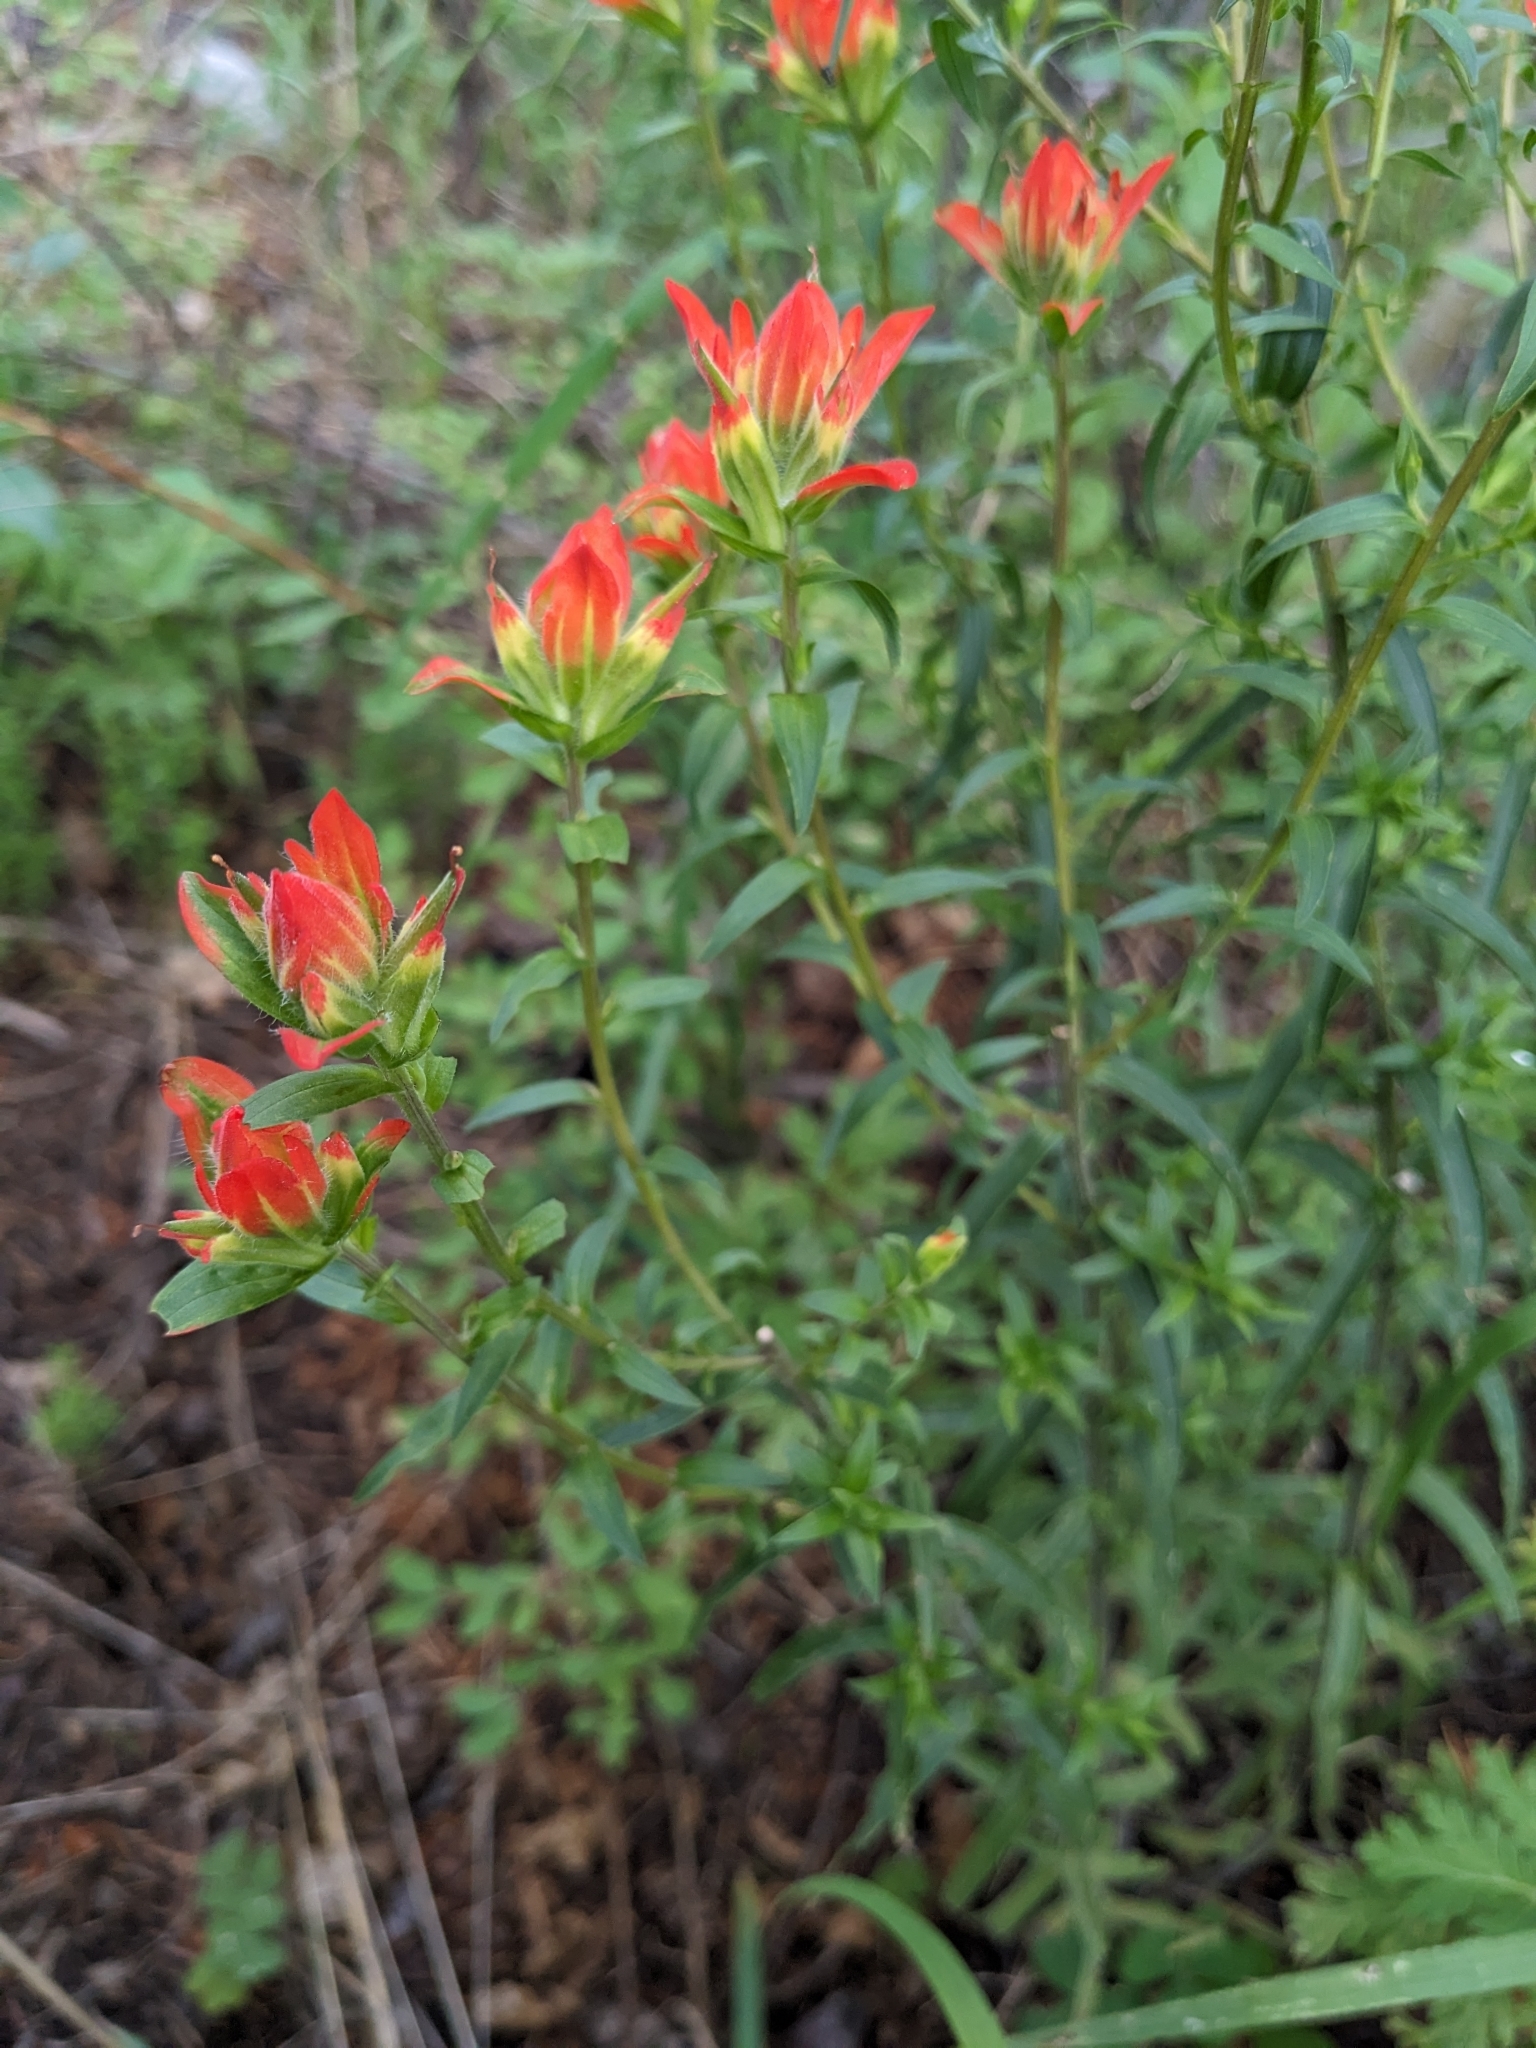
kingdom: Plantae
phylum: Tracheophyta
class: Magnoliopsida
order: Lamiales
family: Orobanchaceae
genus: Castilleja
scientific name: Castilleja nelsonii
